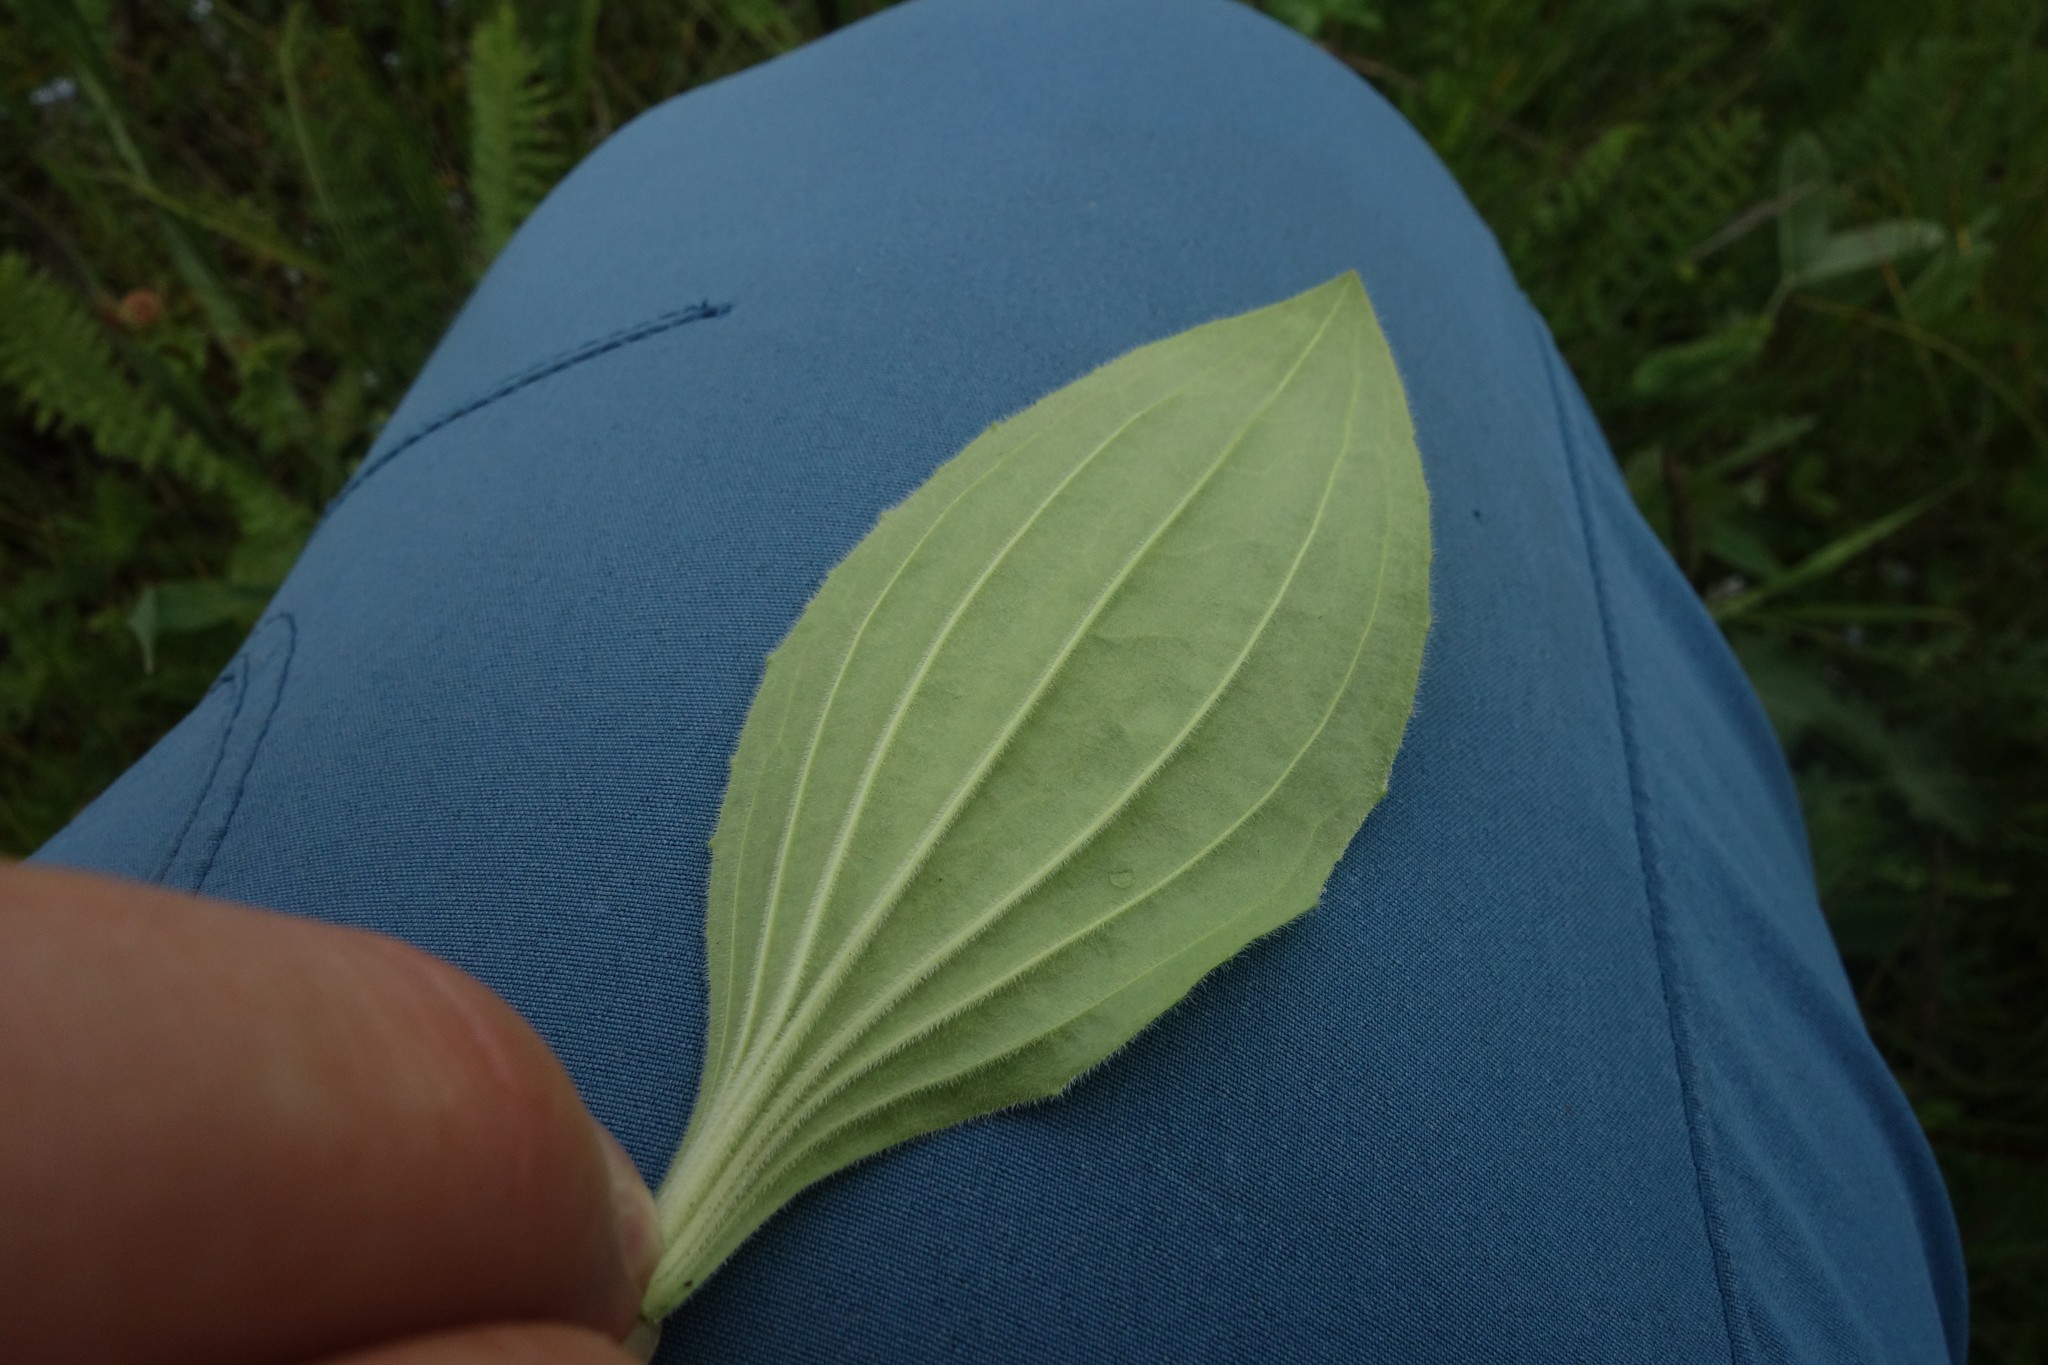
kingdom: Plantae
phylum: Tracheophyta
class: Magnoliopsida
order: Lamiales
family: Plantaginaceae
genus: Plantago
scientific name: Plantago media
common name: Hoary plantain
